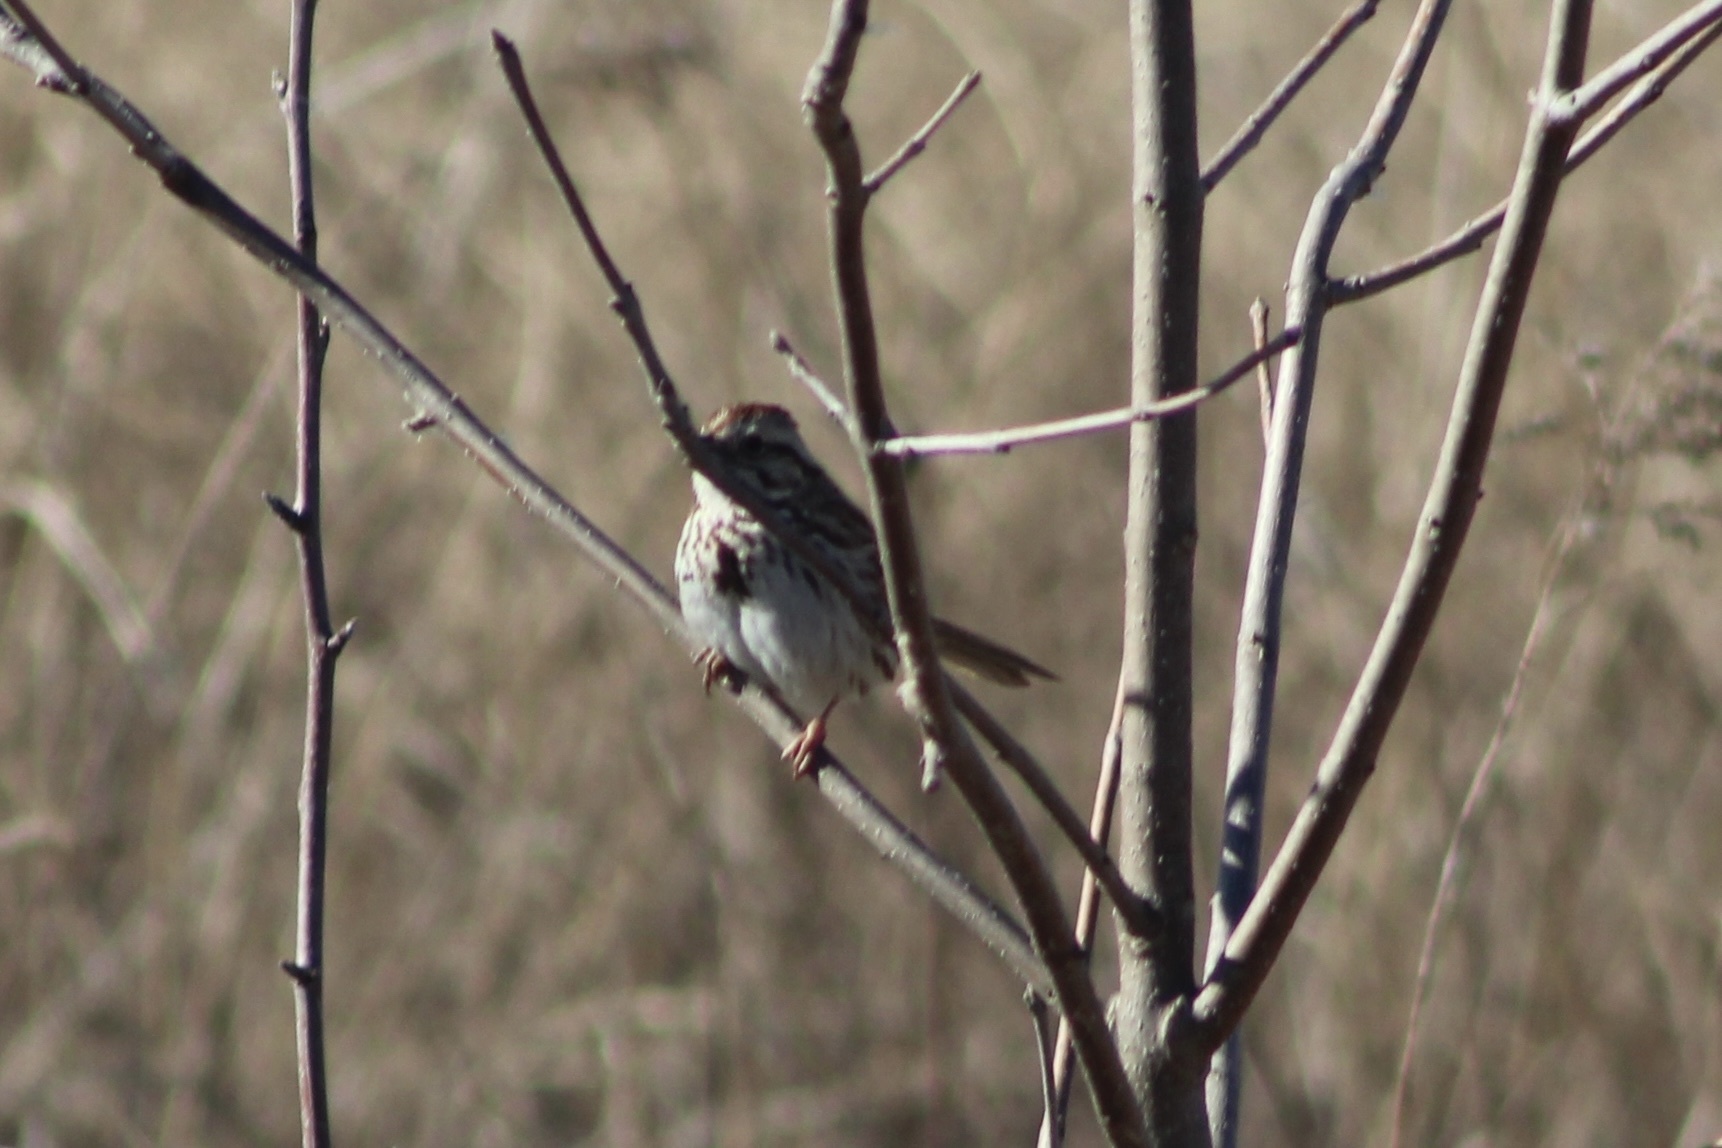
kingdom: Animalia
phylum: Chordata
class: Aves
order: Passeriformes
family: Passerellidae
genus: Melospiza
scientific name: Melospiza melodia
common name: Song sparrow
